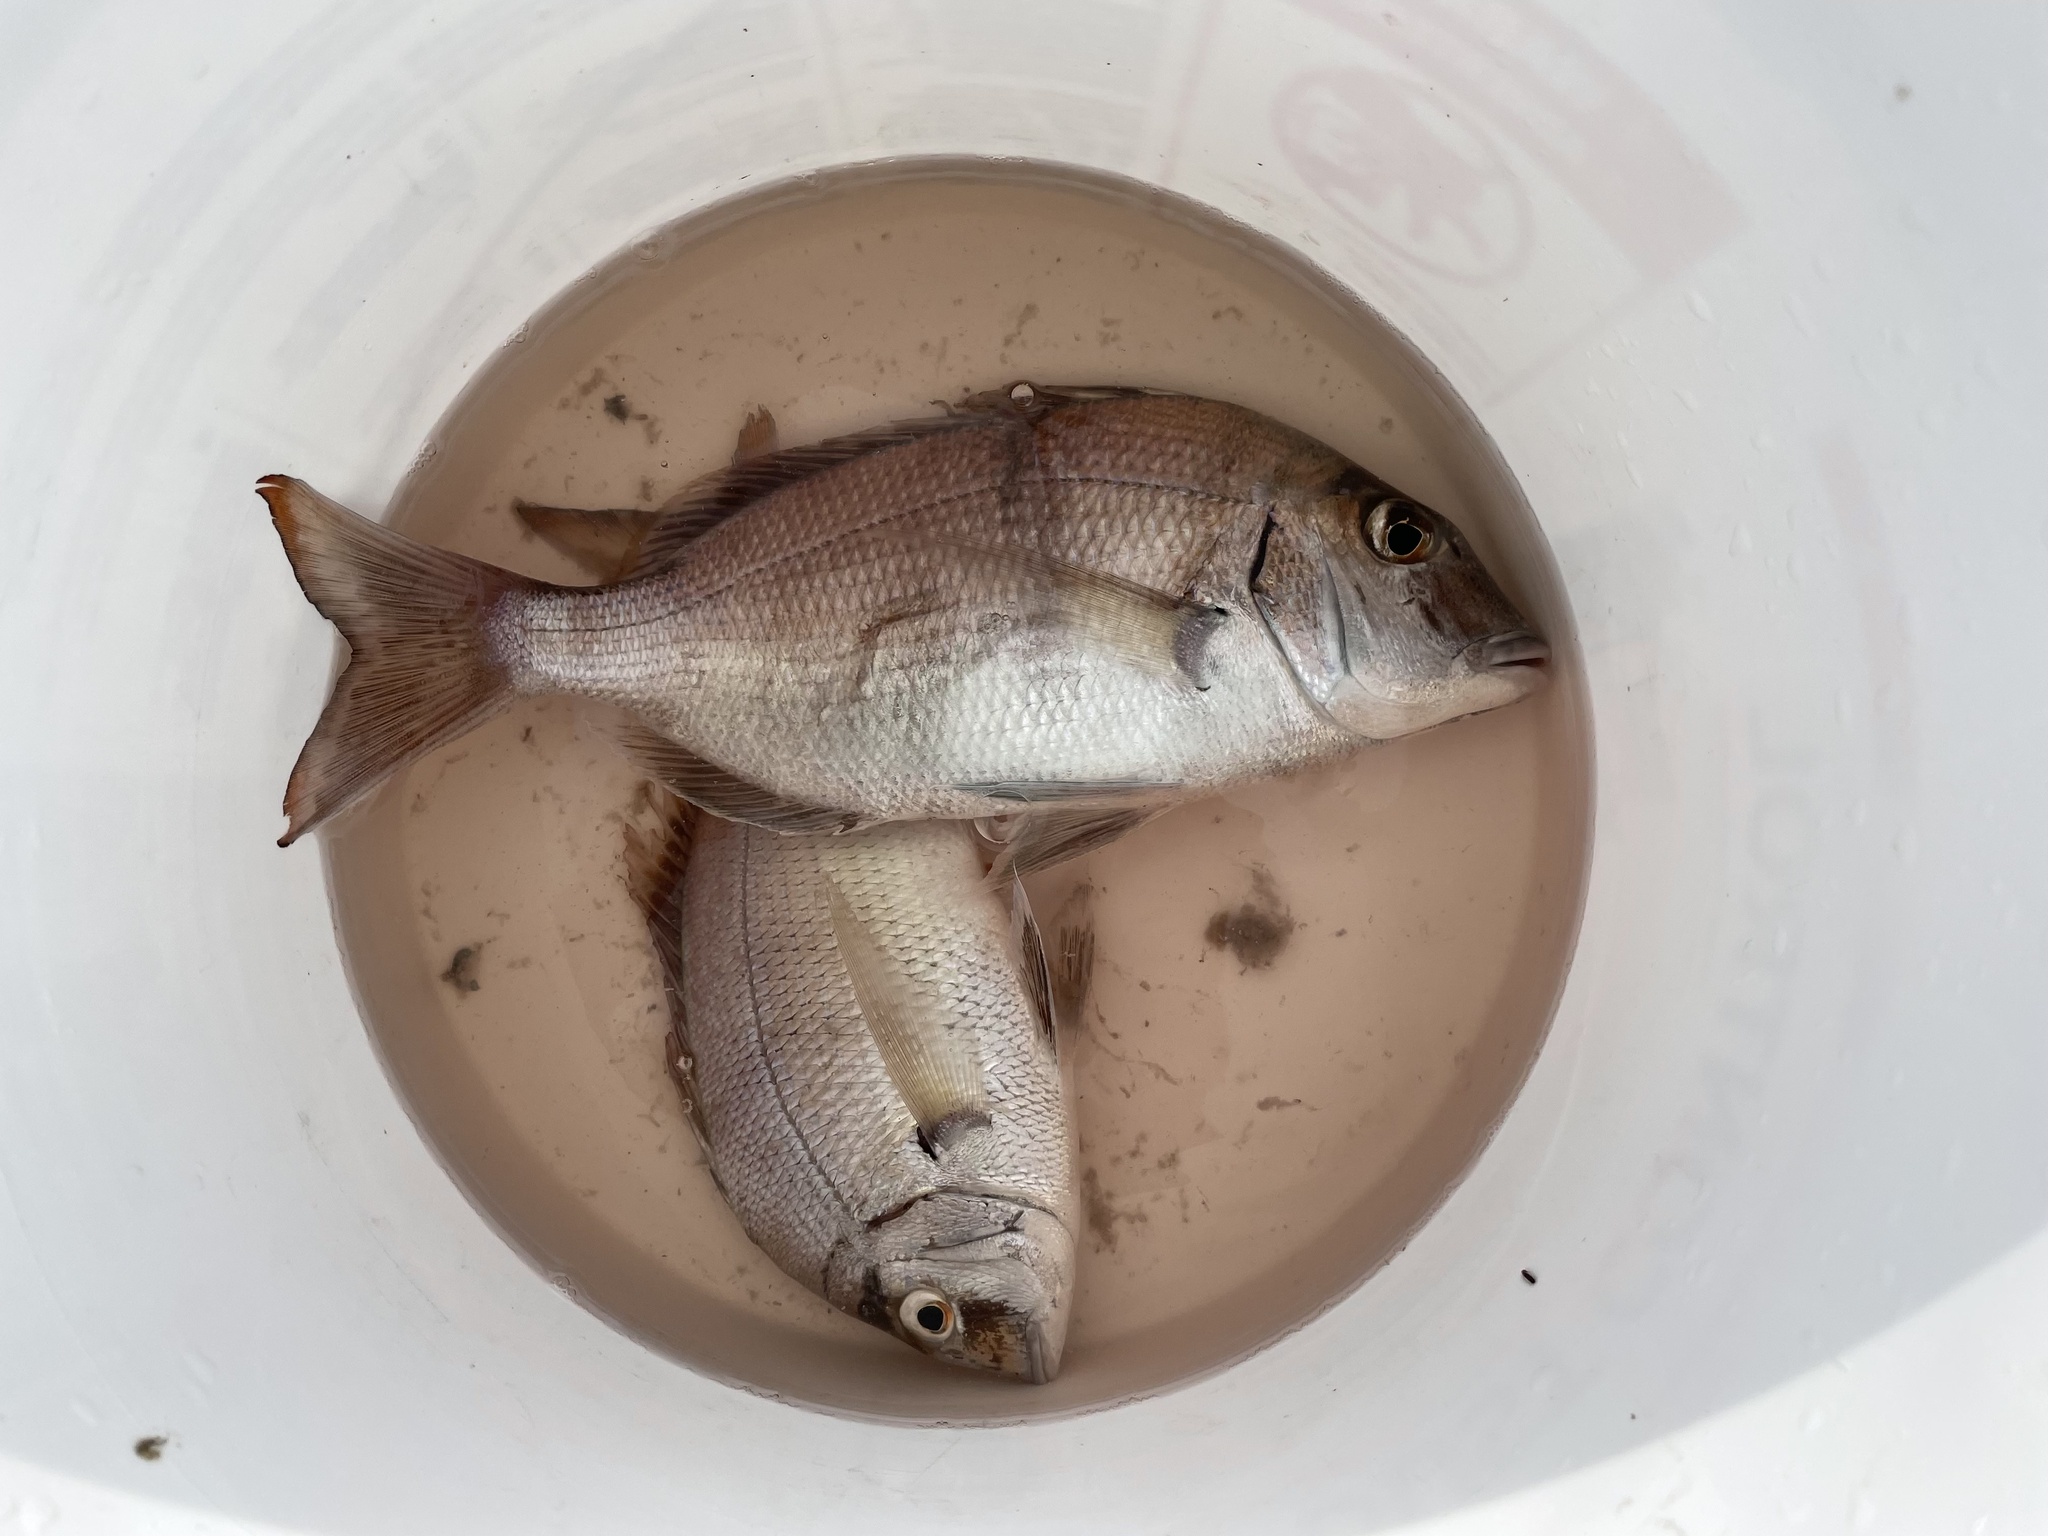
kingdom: Animalia
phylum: Chordata
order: Perciformes
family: Sparidae
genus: Stenotomus
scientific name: Stenotomus chrysops
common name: Scup
